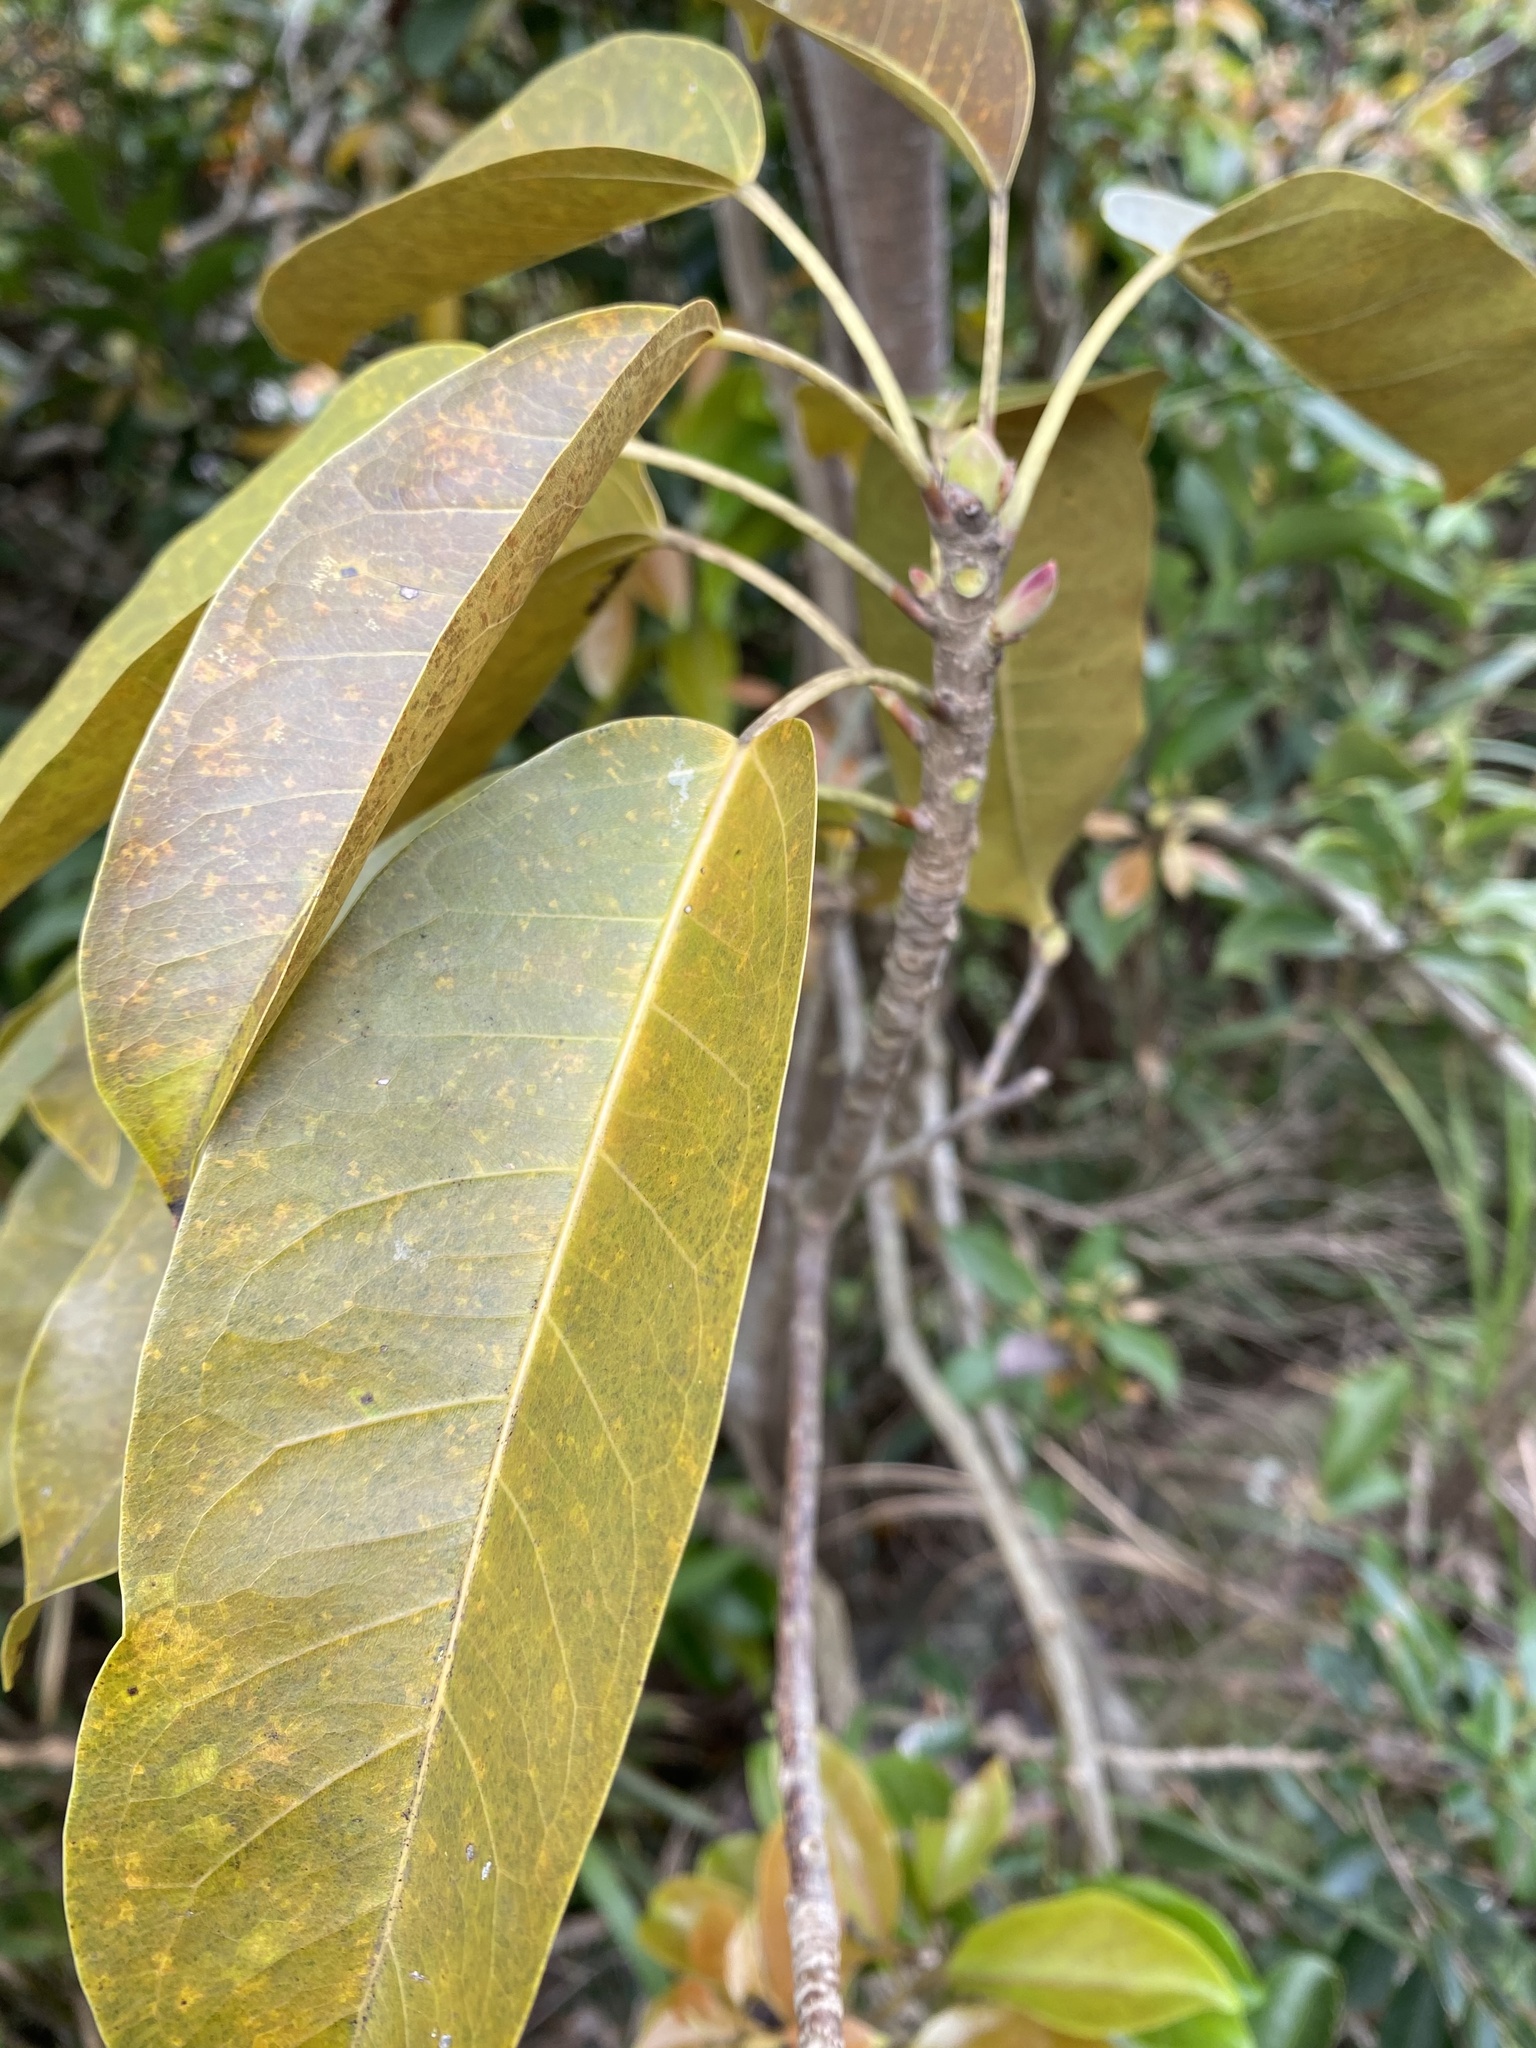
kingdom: Plantae
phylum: Tracheophyta
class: Magnoliopsida
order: Rosales
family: Moraceae
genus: Ficus
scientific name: Ficus subpisocarpa
